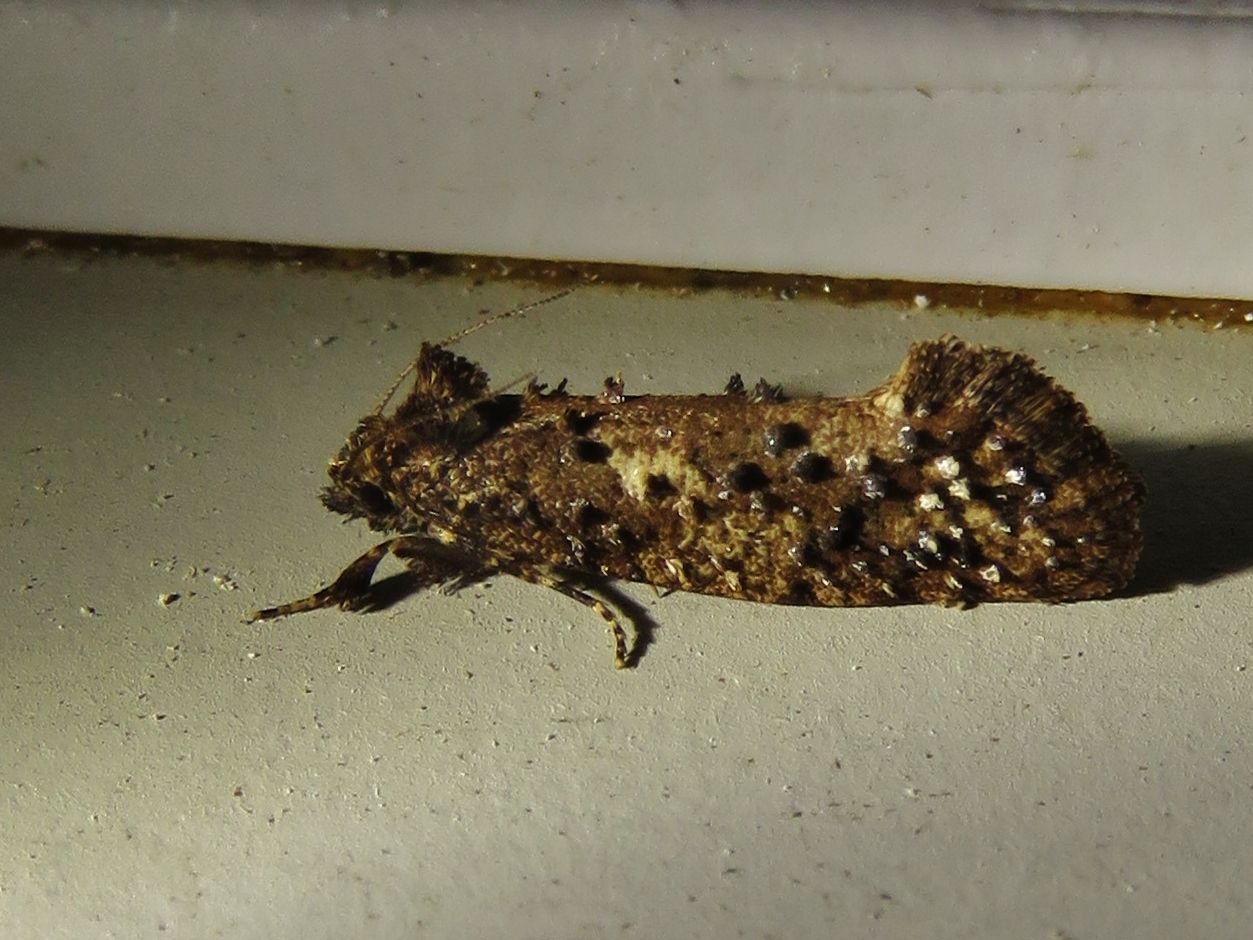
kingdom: Animalia
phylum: Arthropoda
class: Insecta
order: Lepidoptera
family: Tineidae
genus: Acrolophus
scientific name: Acrolophus cressoni
